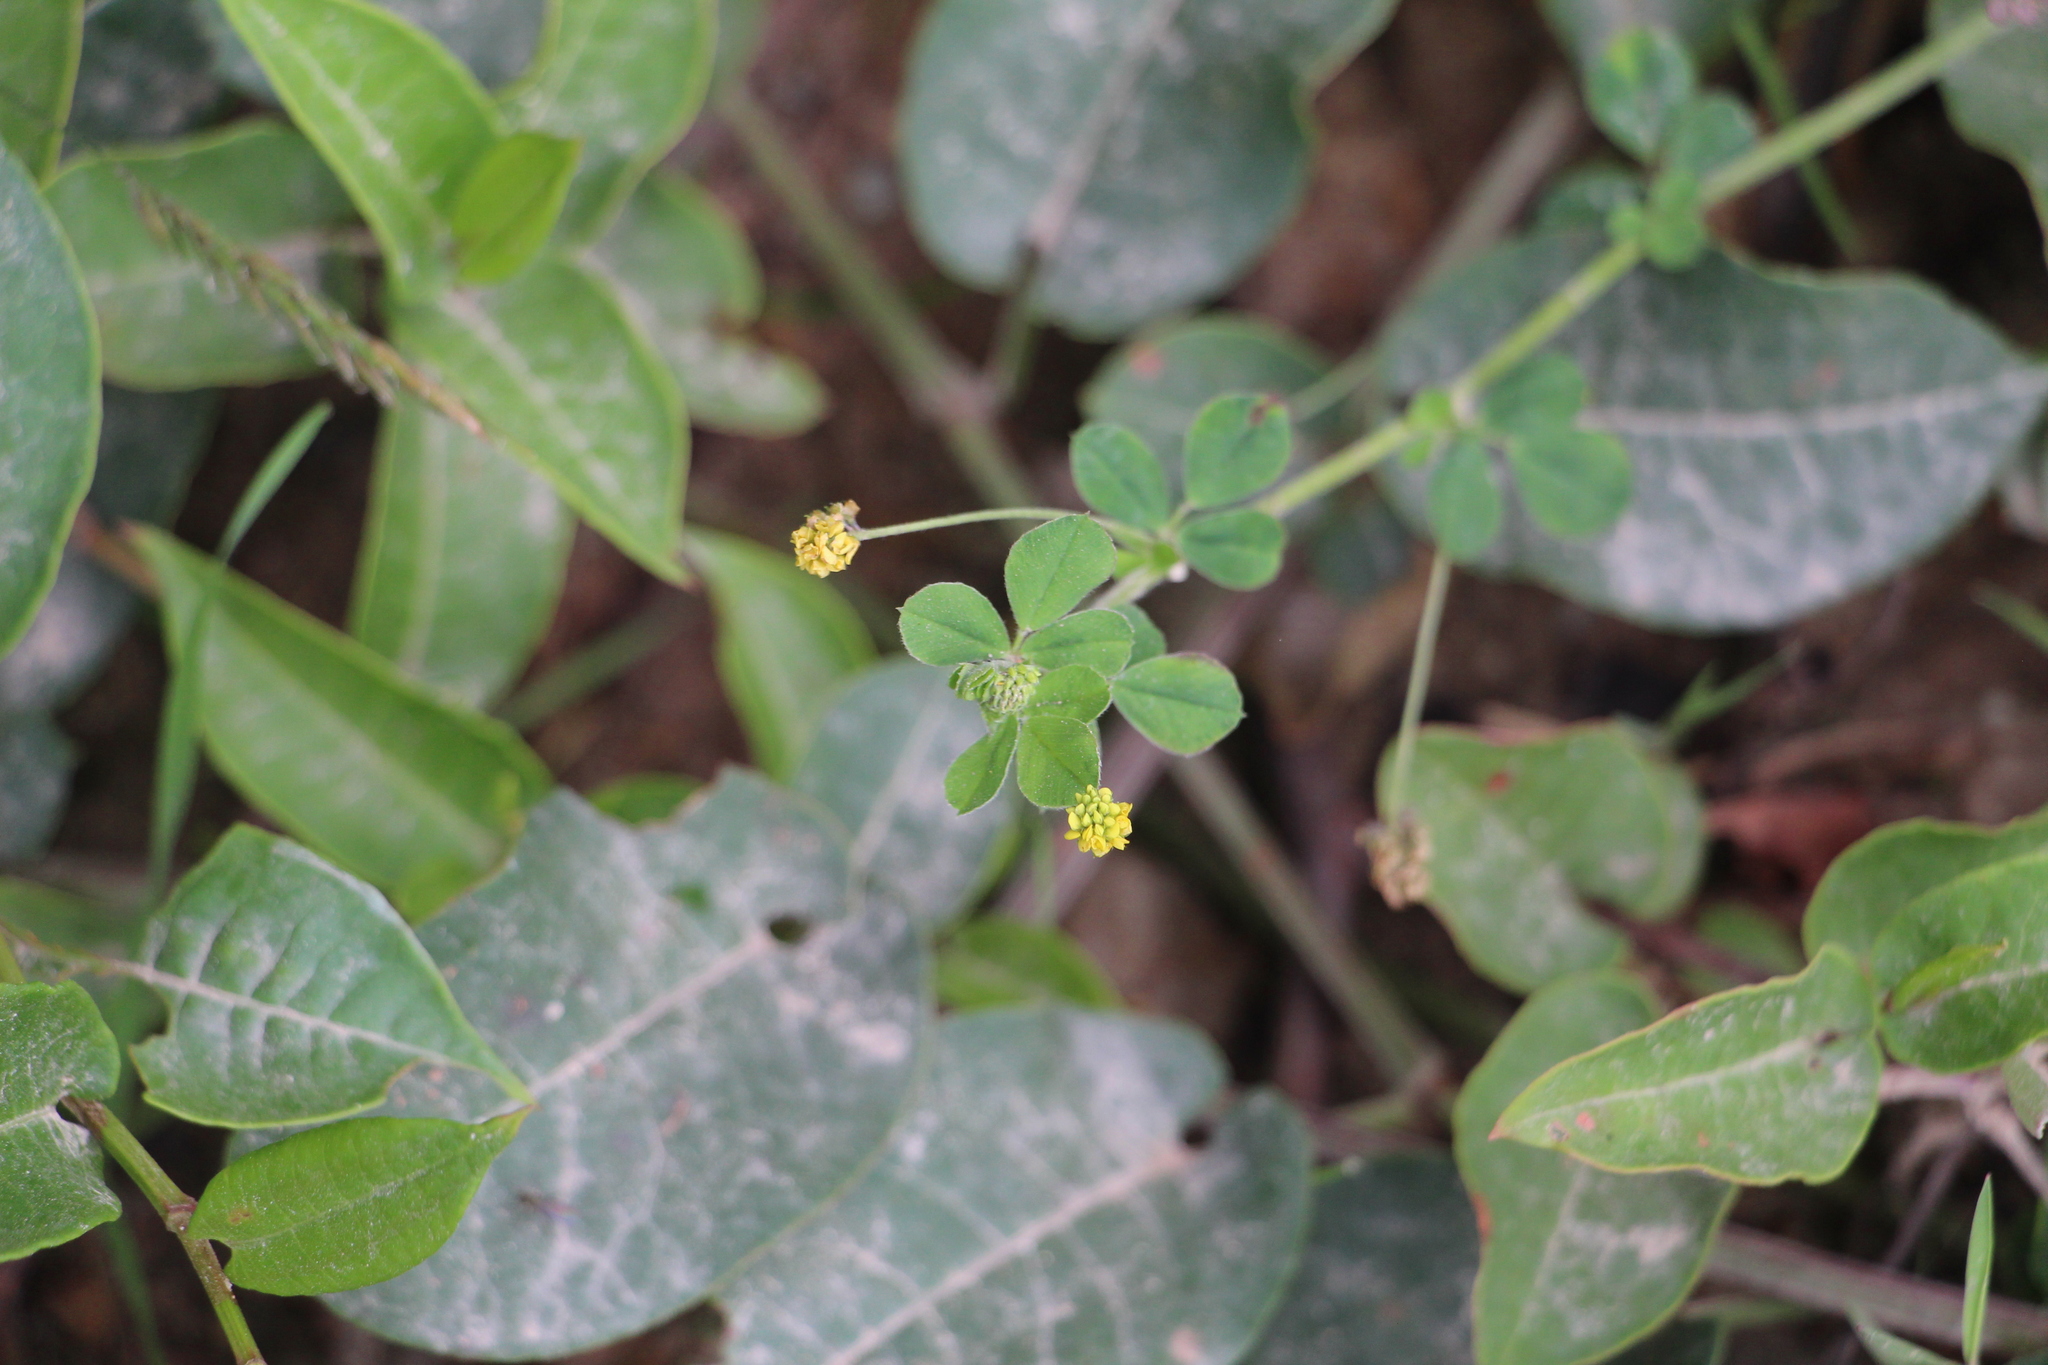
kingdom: Plantae
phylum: Tracheophyta
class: Magnoliopsida
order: Fabales
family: Fabaceae
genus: Medicago
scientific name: Medicago lupulina
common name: Black medick
